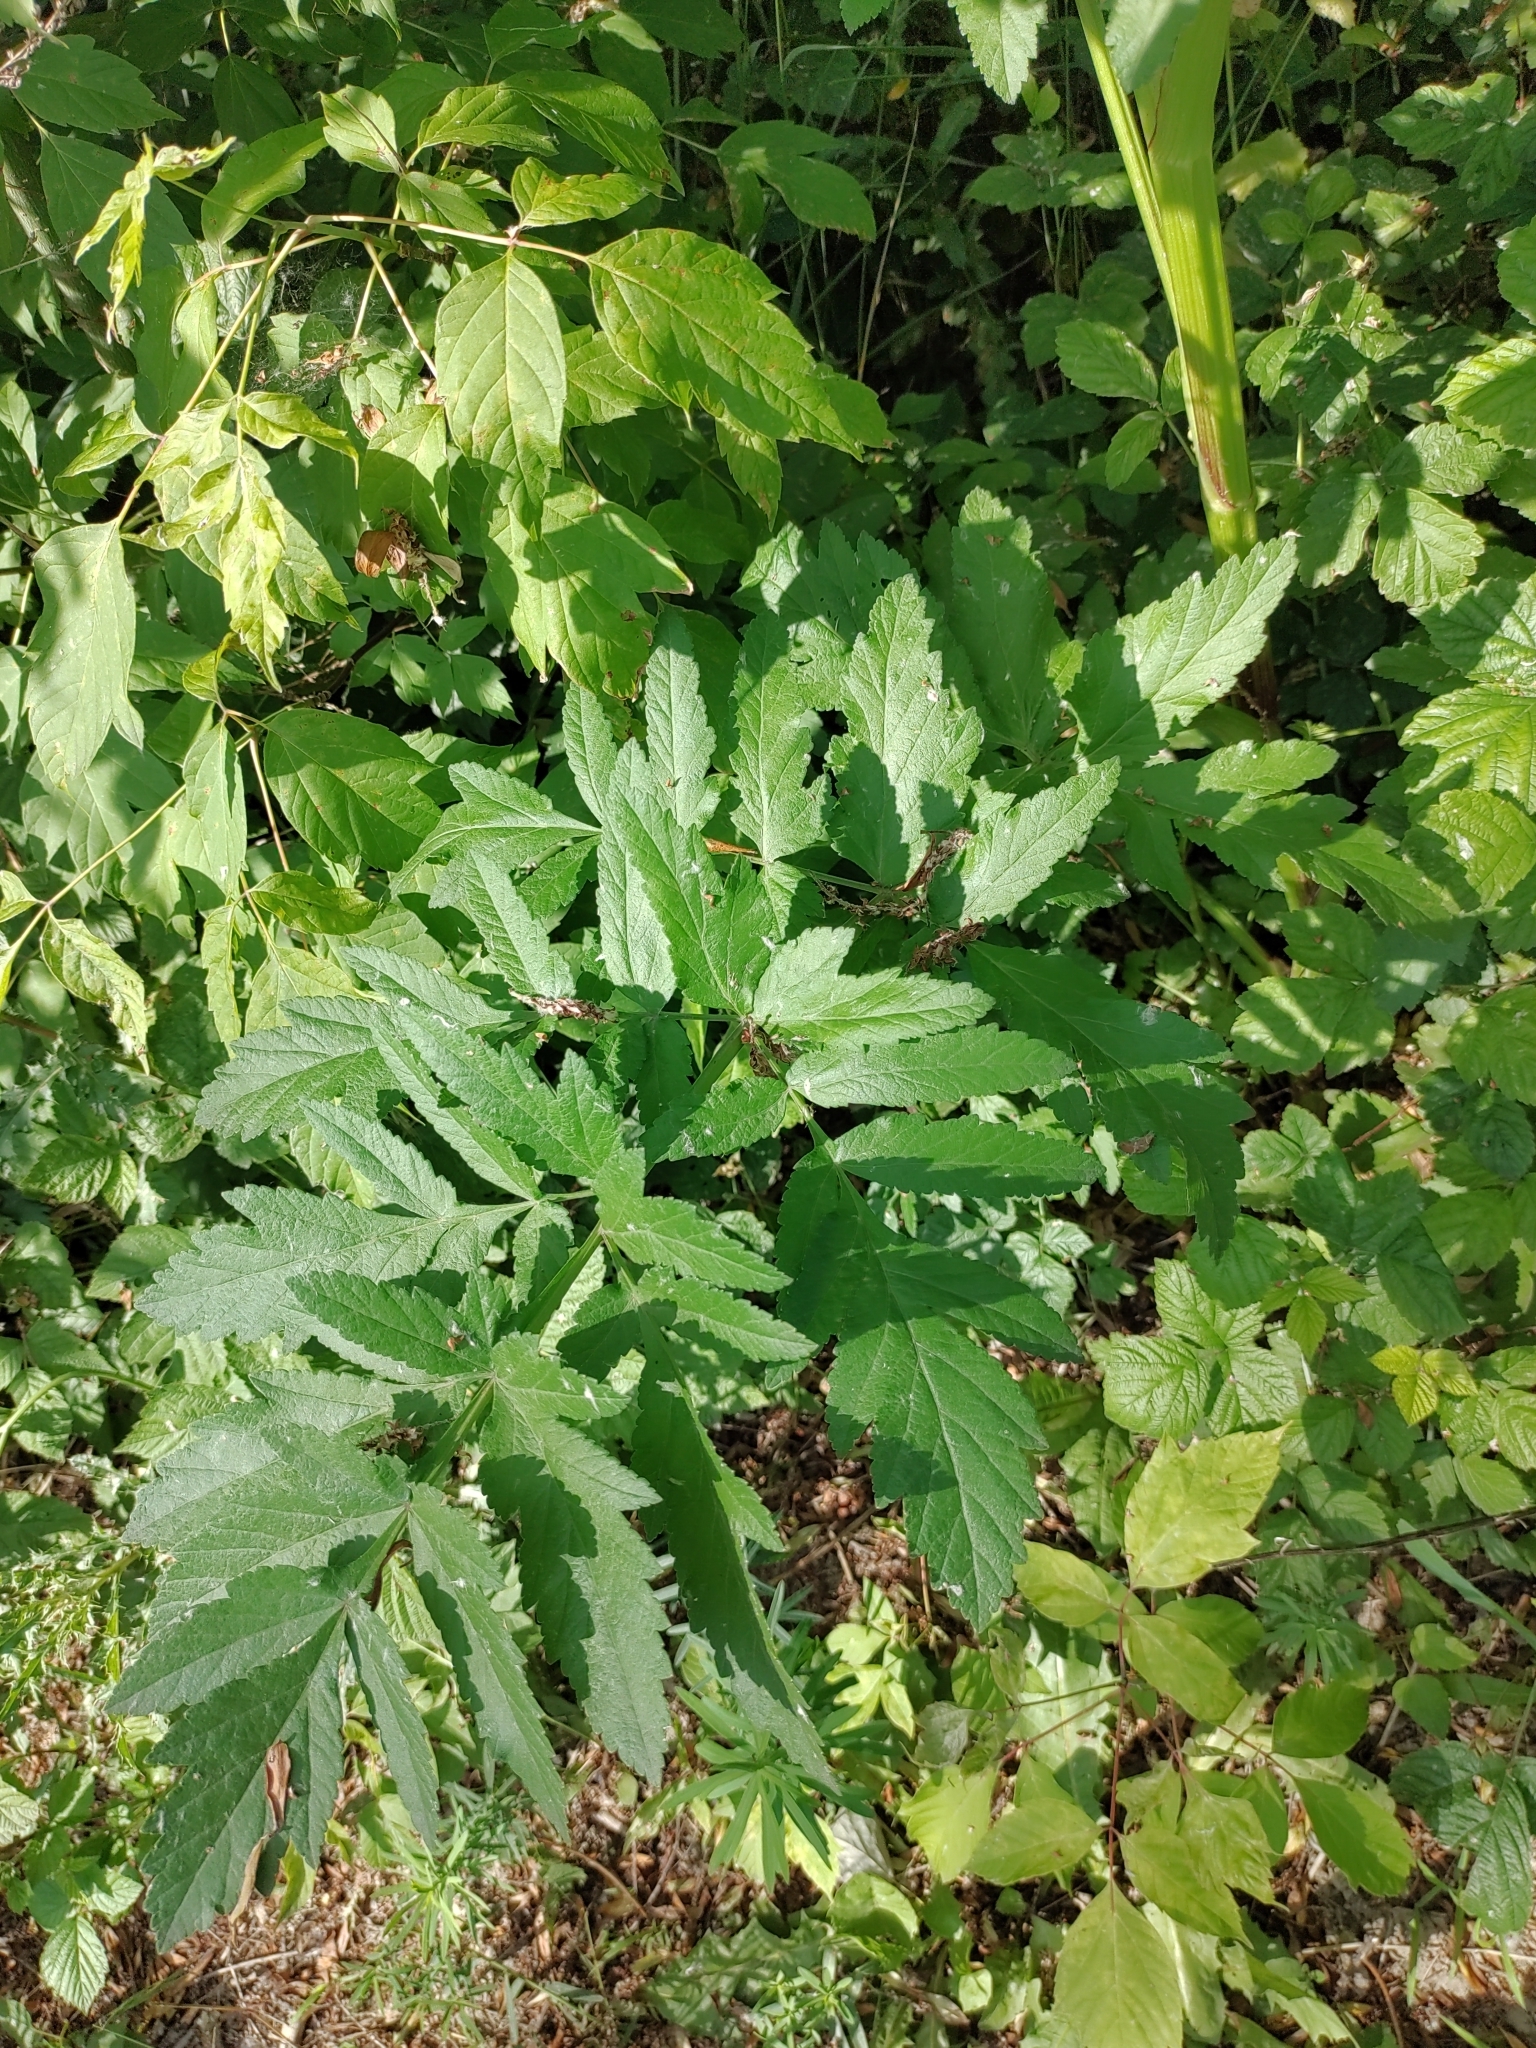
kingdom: Plantae
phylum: Tracheophyta
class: Magnoliopsida
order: Apiales
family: Apiaceae
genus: Pastinaca
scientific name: Pastinaca sativa
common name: Wild parsnip
